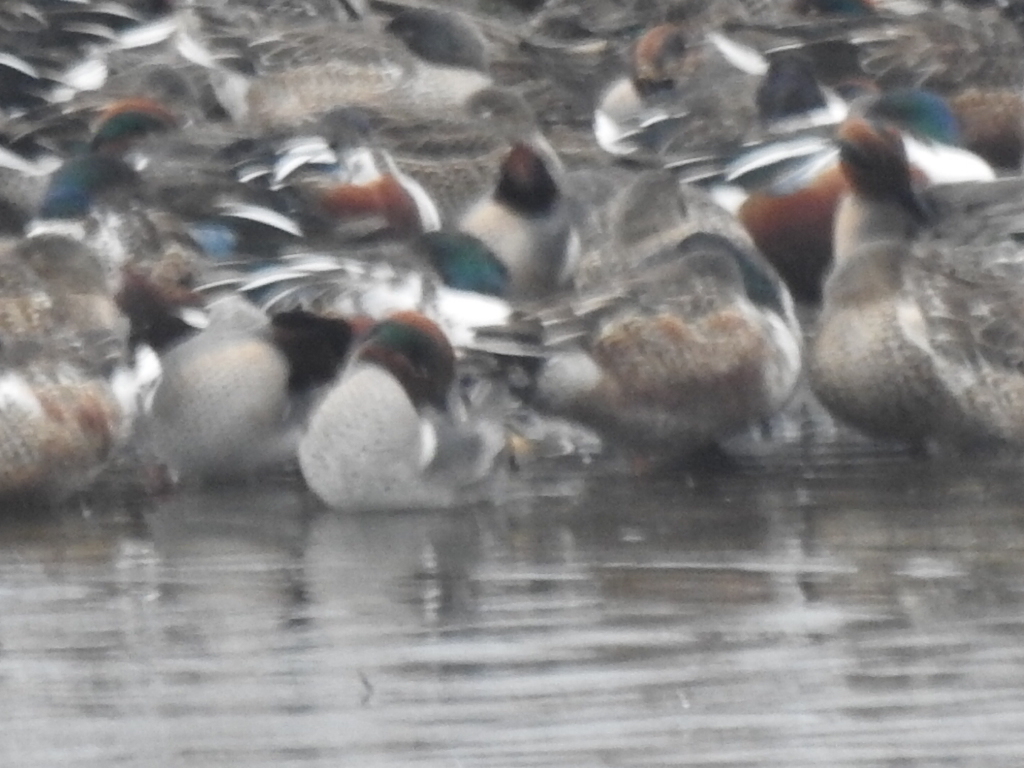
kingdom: Animalia
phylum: Chordata
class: Aves
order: Anseriformes
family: Anatidae
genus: Anas
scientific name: Anas crecca
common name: Eurasian teal
